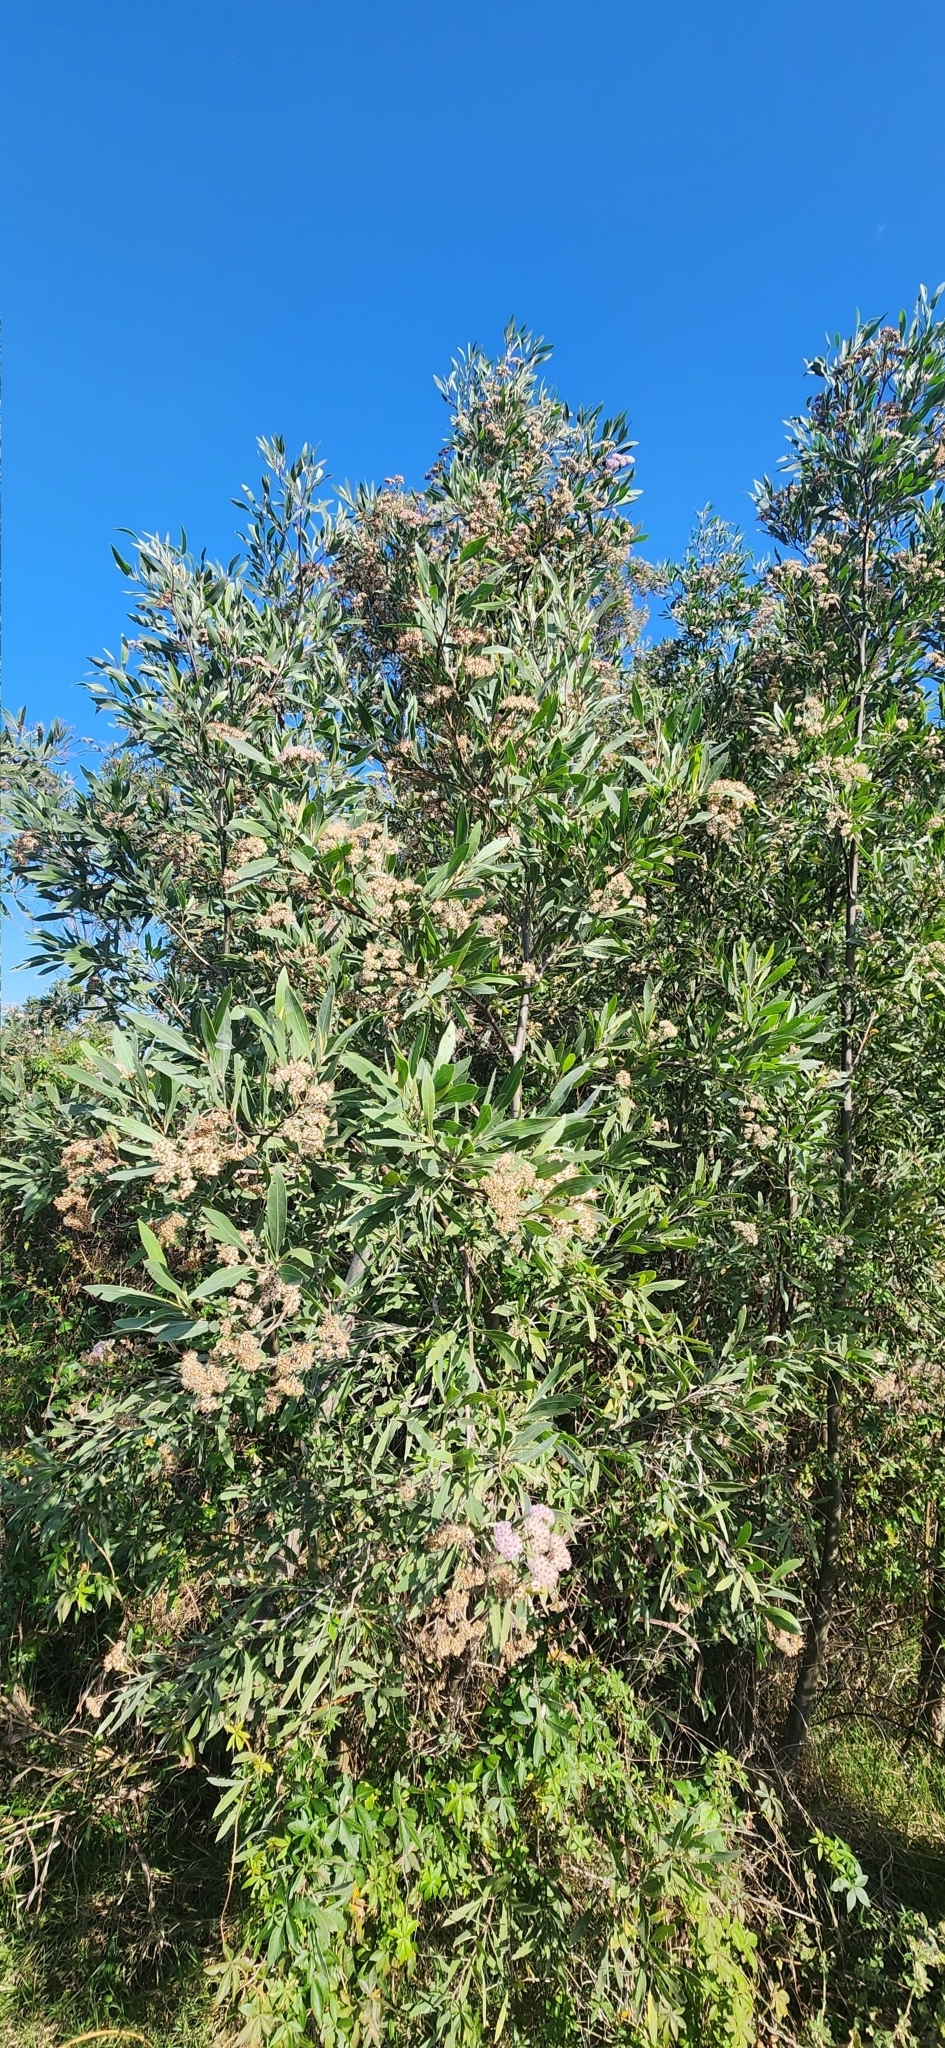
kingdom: Plantae
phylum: Tracheophyta
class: Magnoliopsida
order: Asterales
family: Asteraceae
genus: Tessaria
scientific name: Tessaria integrifolia
